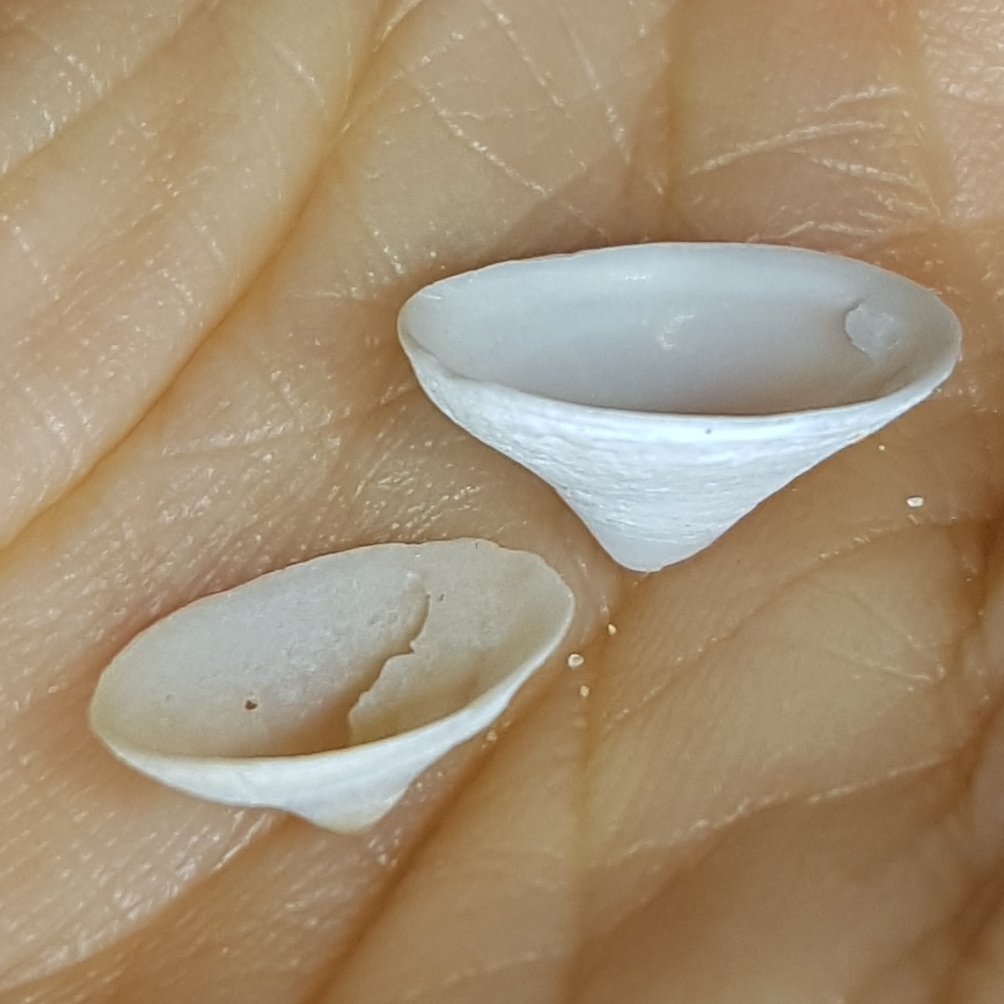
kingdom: Animalia
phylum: Mollusca
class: Gastropoda
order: Littorinimorpha
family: Calyptraeidae
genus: Calyptraea
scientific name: Calyptraea chinensis
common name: Chinaman's hat
